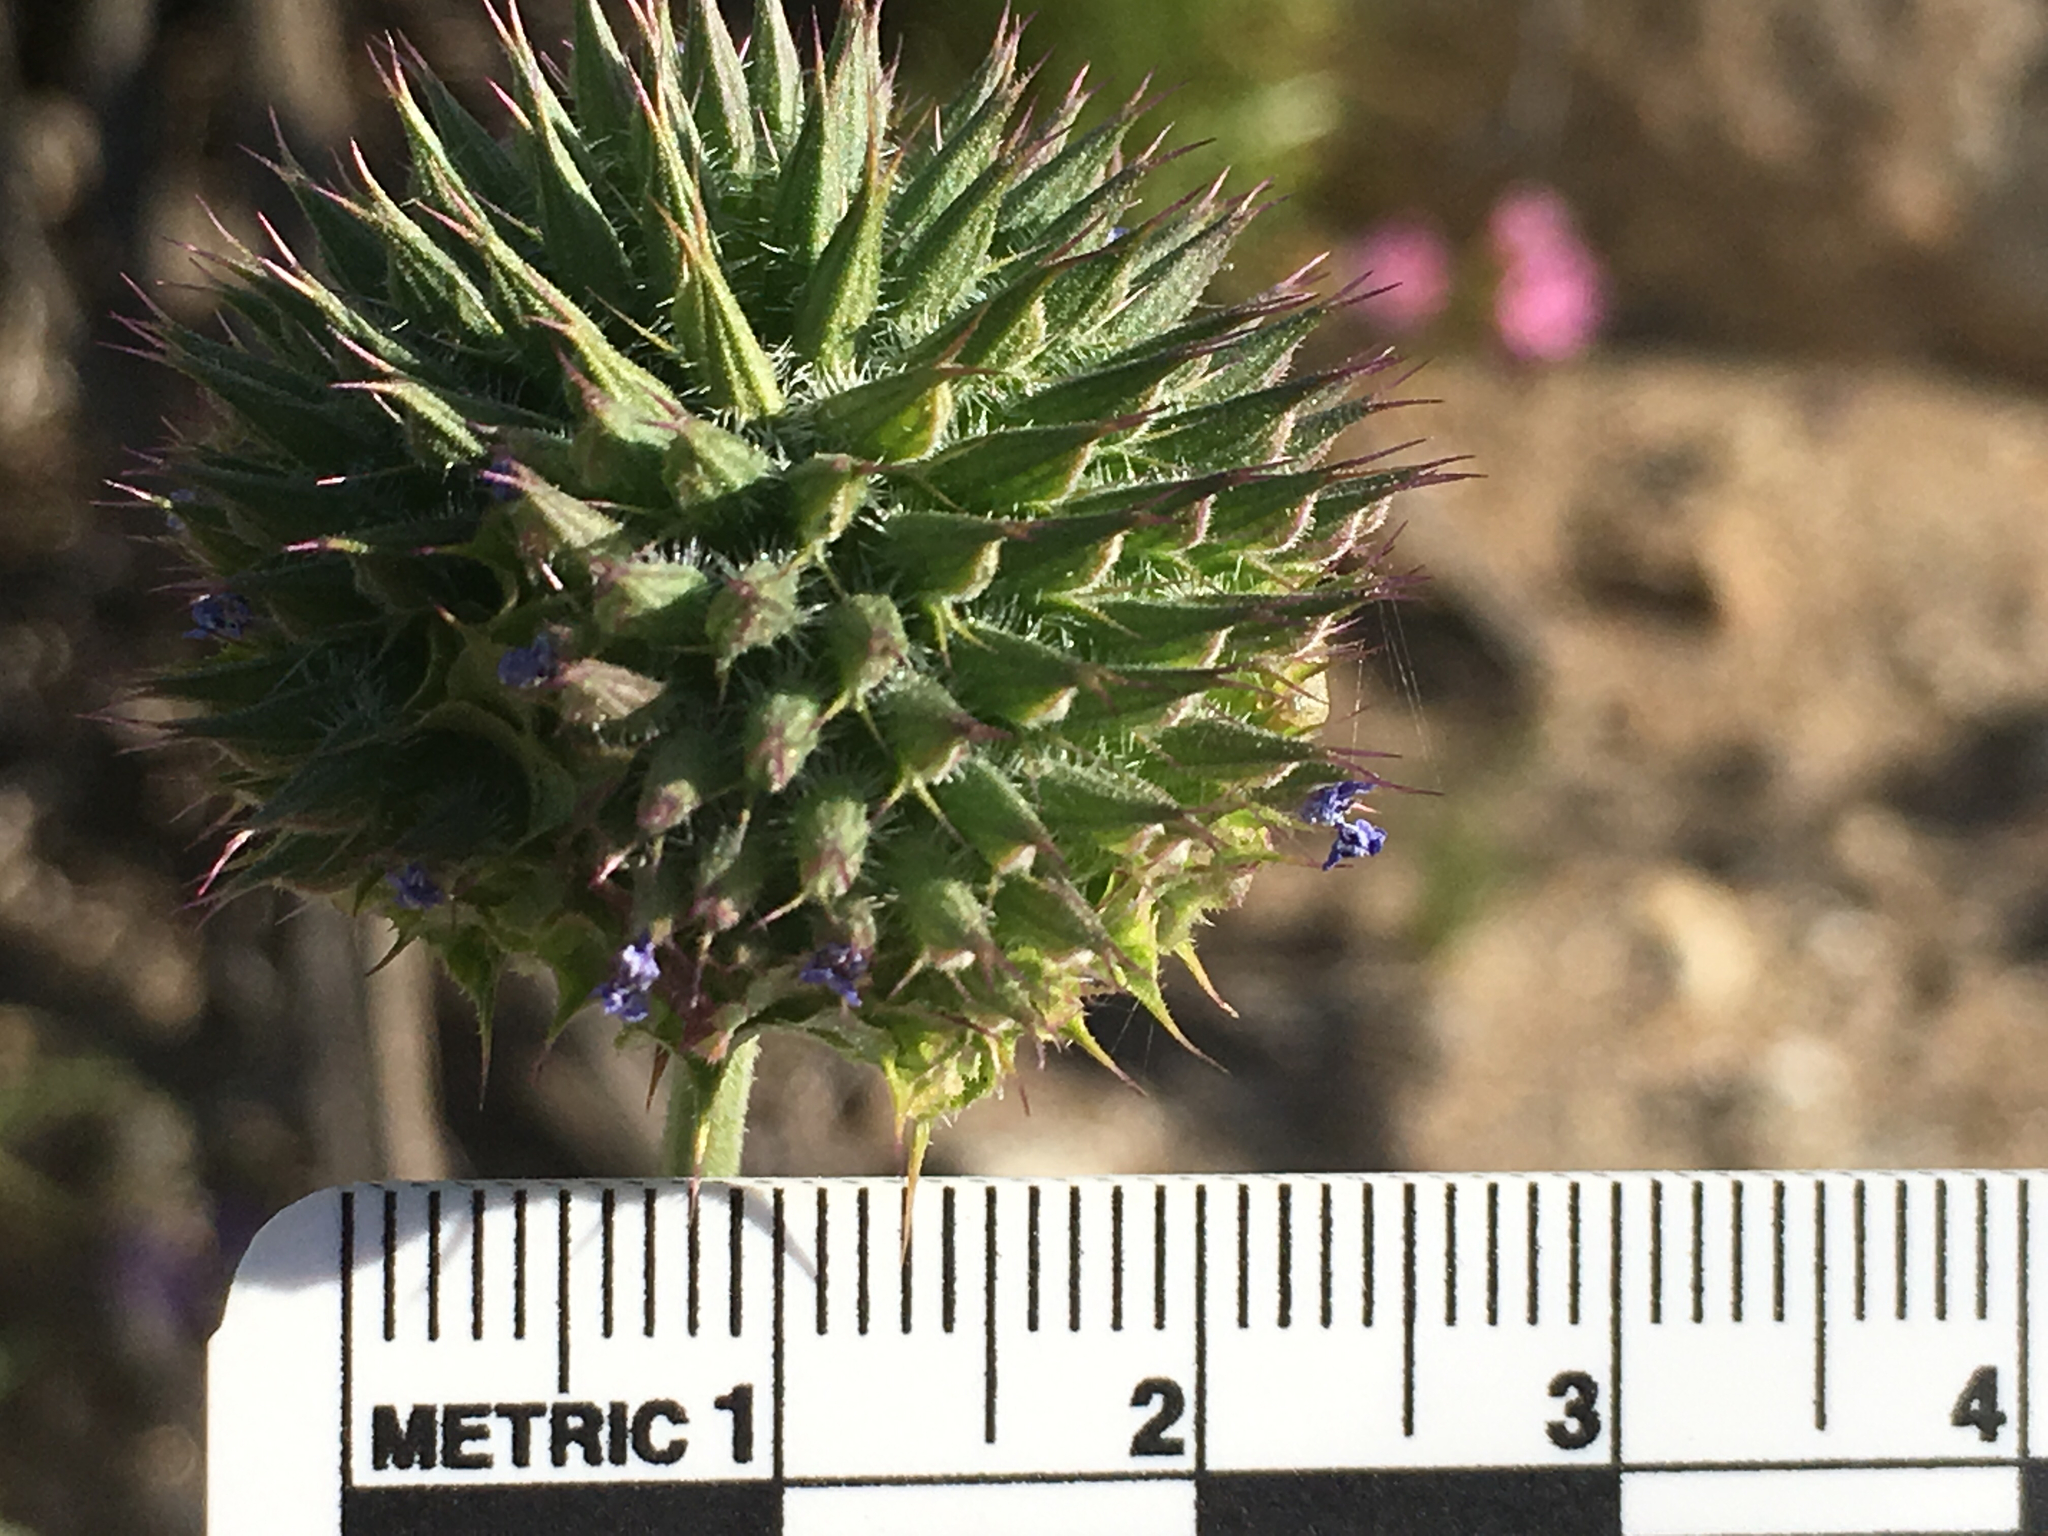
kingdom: Plantae
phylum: Tracheophyta
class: Magnoliopsida
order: Lamiales
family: Lamiaceae
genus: Salvia
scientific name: Salvia columbariae
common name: Chia
